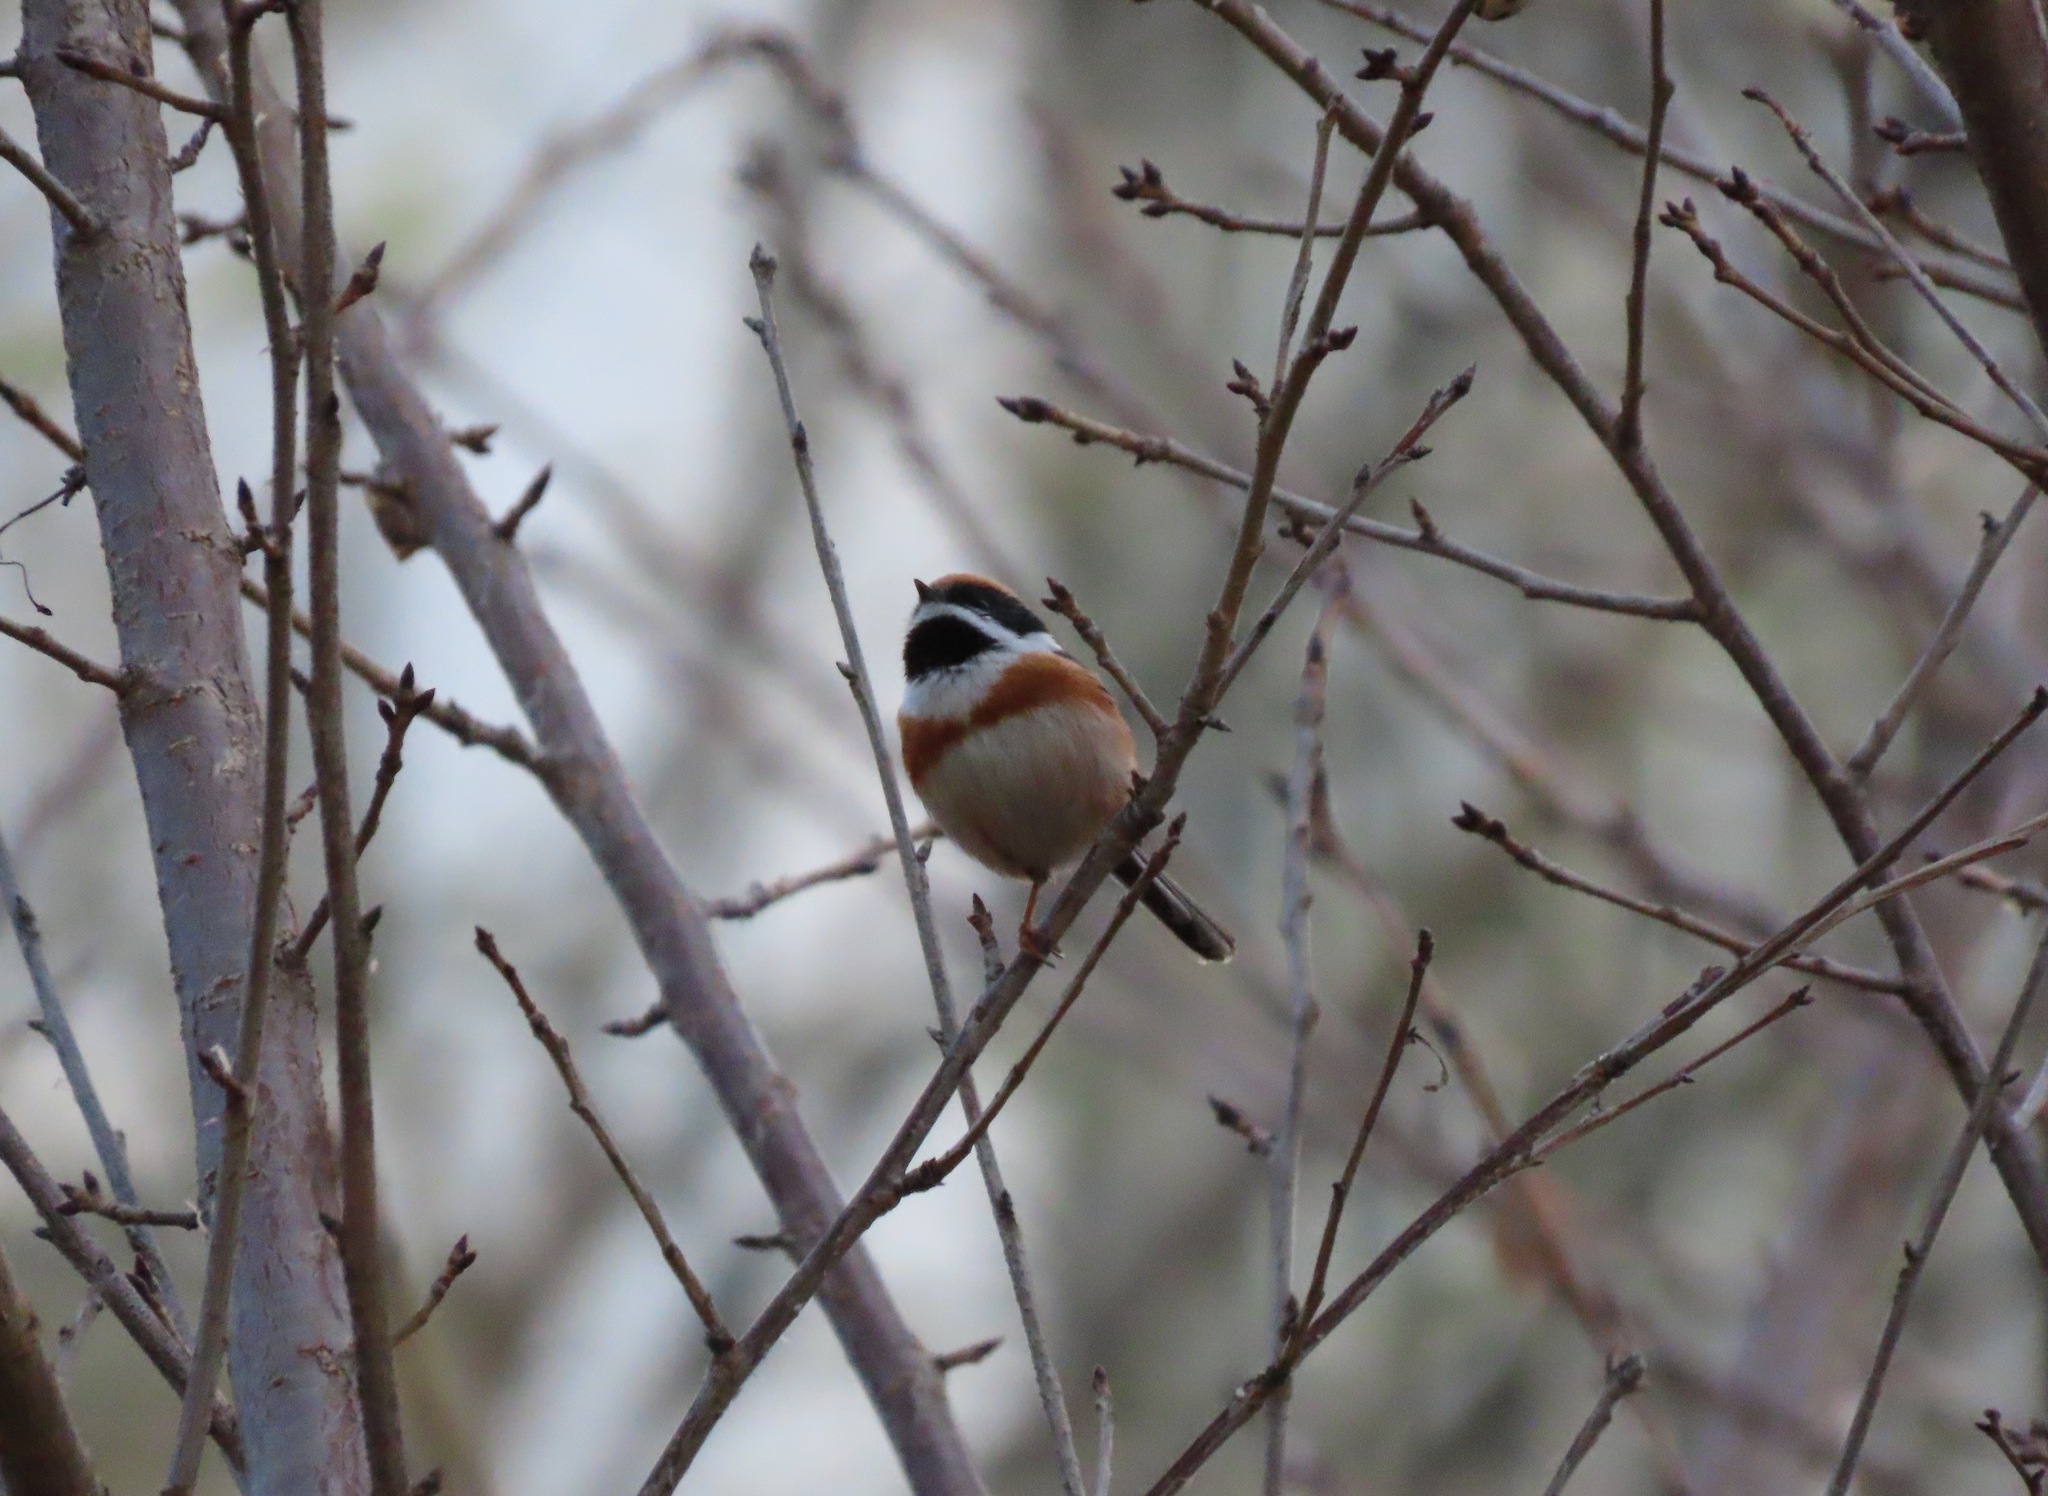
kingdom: Animalia
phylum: Chordata
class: Aves
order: Passeriformes
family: Aegithalidae
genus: Aegithalos
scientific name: Aegithalos concinnus
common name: Black-throated bushtit
